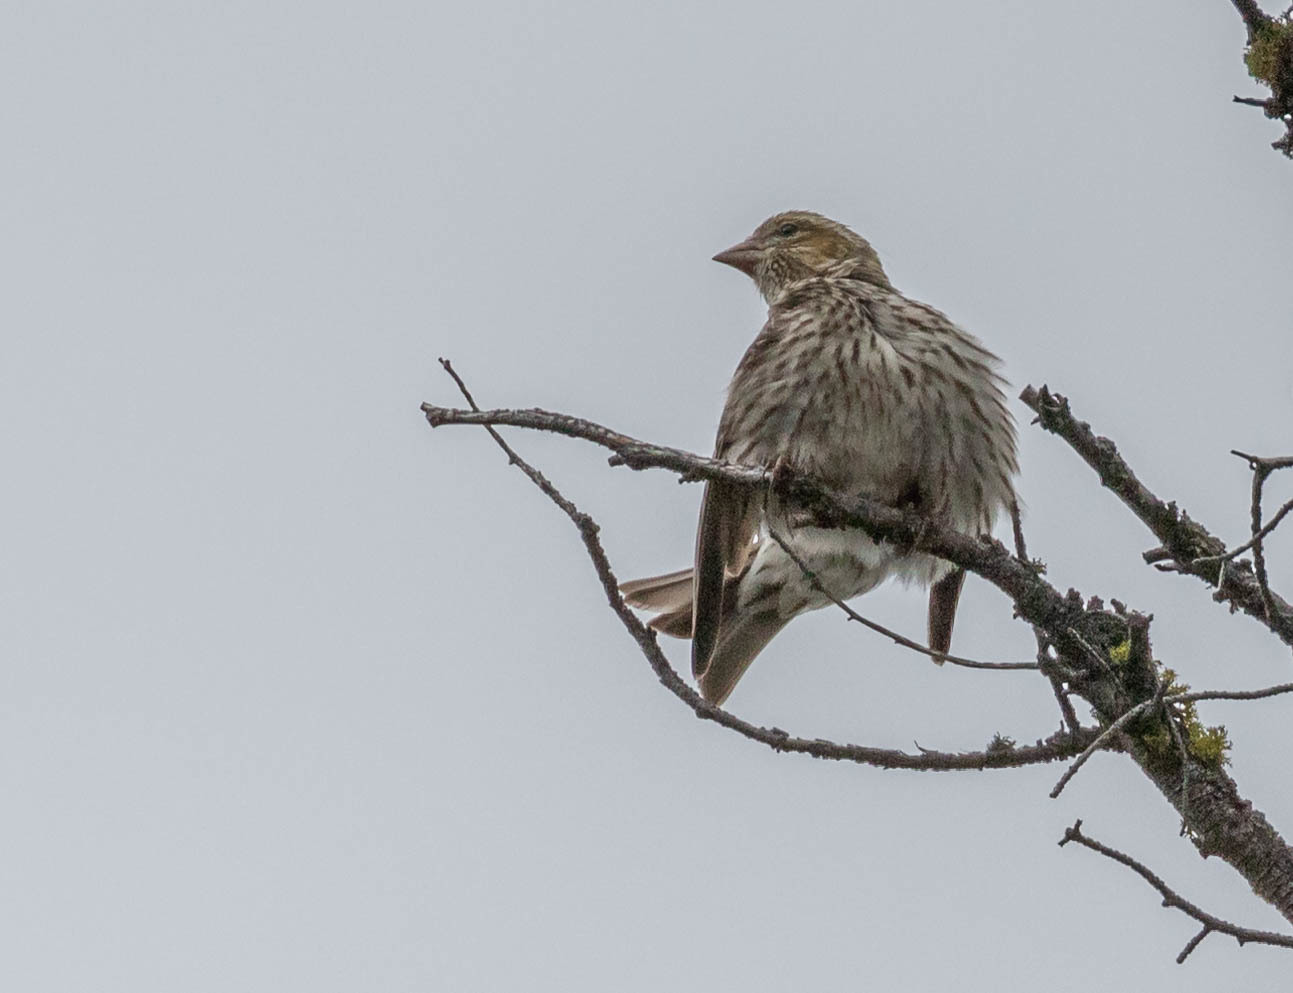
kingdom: Animalia
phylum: Chordata
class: Aves
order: Passeriformes
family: Fringillidae
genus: Haemorhous
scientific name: Haemorhous cassinii
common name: Cassin's finch
